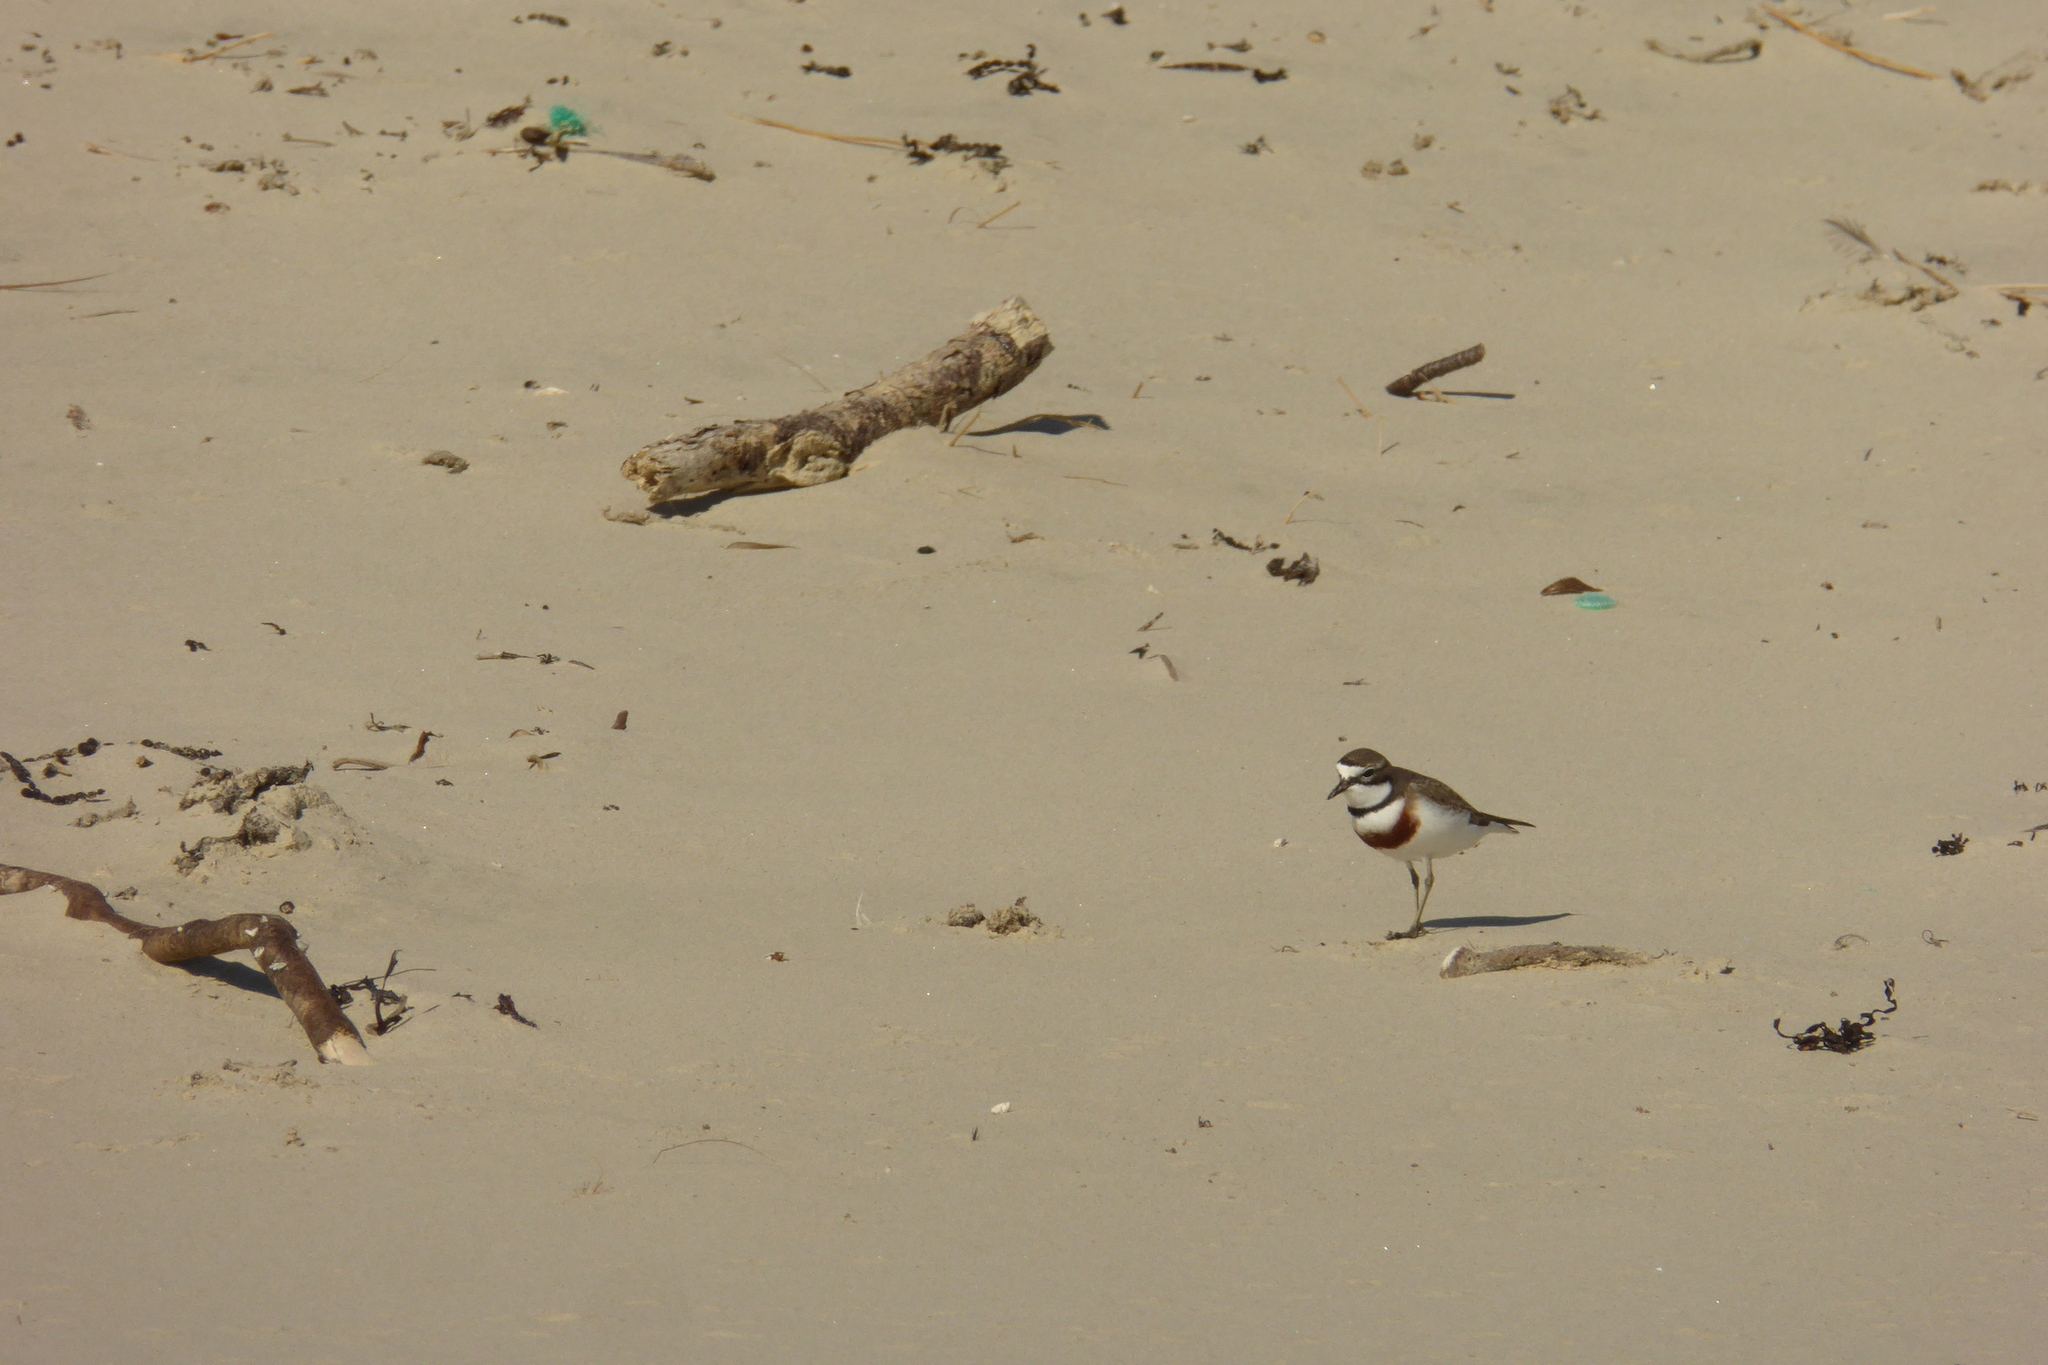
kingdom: Animalia
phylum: Chordata
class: Aves
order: Charadriiformes
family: Charadriidae
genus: Anarhynchus
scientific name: Anarhynchus
